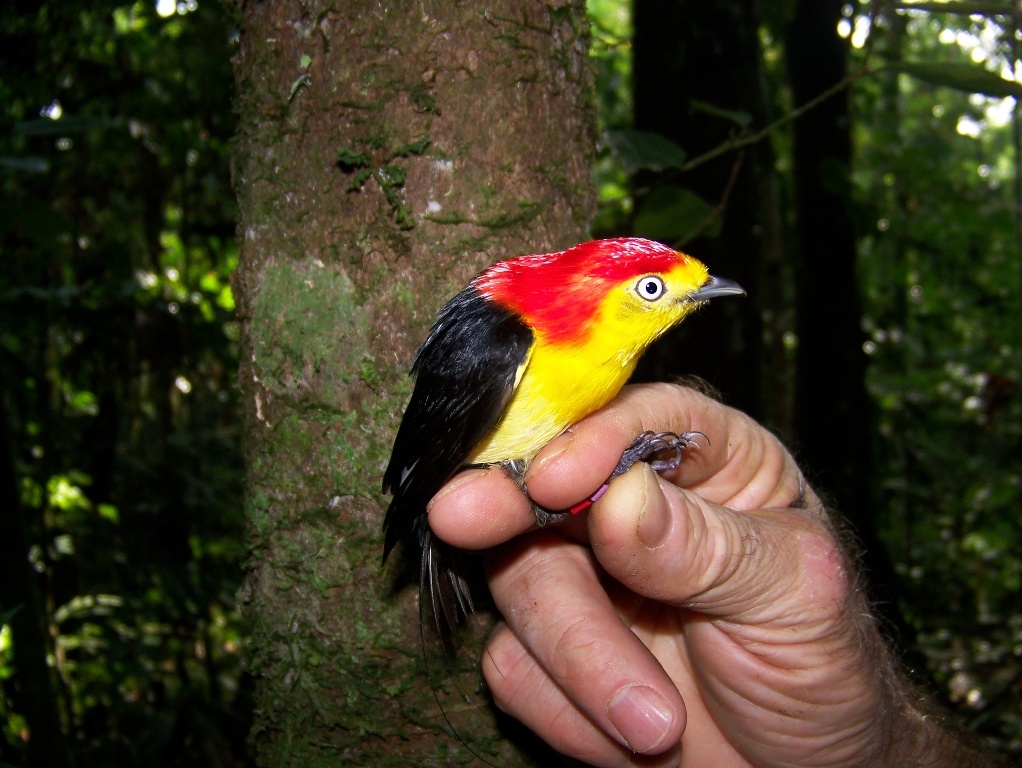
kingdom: Animalia
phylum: Chordata
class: Aves
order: Passeriformes
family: Pipridae
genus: Pipra
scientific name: Pipra filicauda
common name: Wire-tailed manakin
